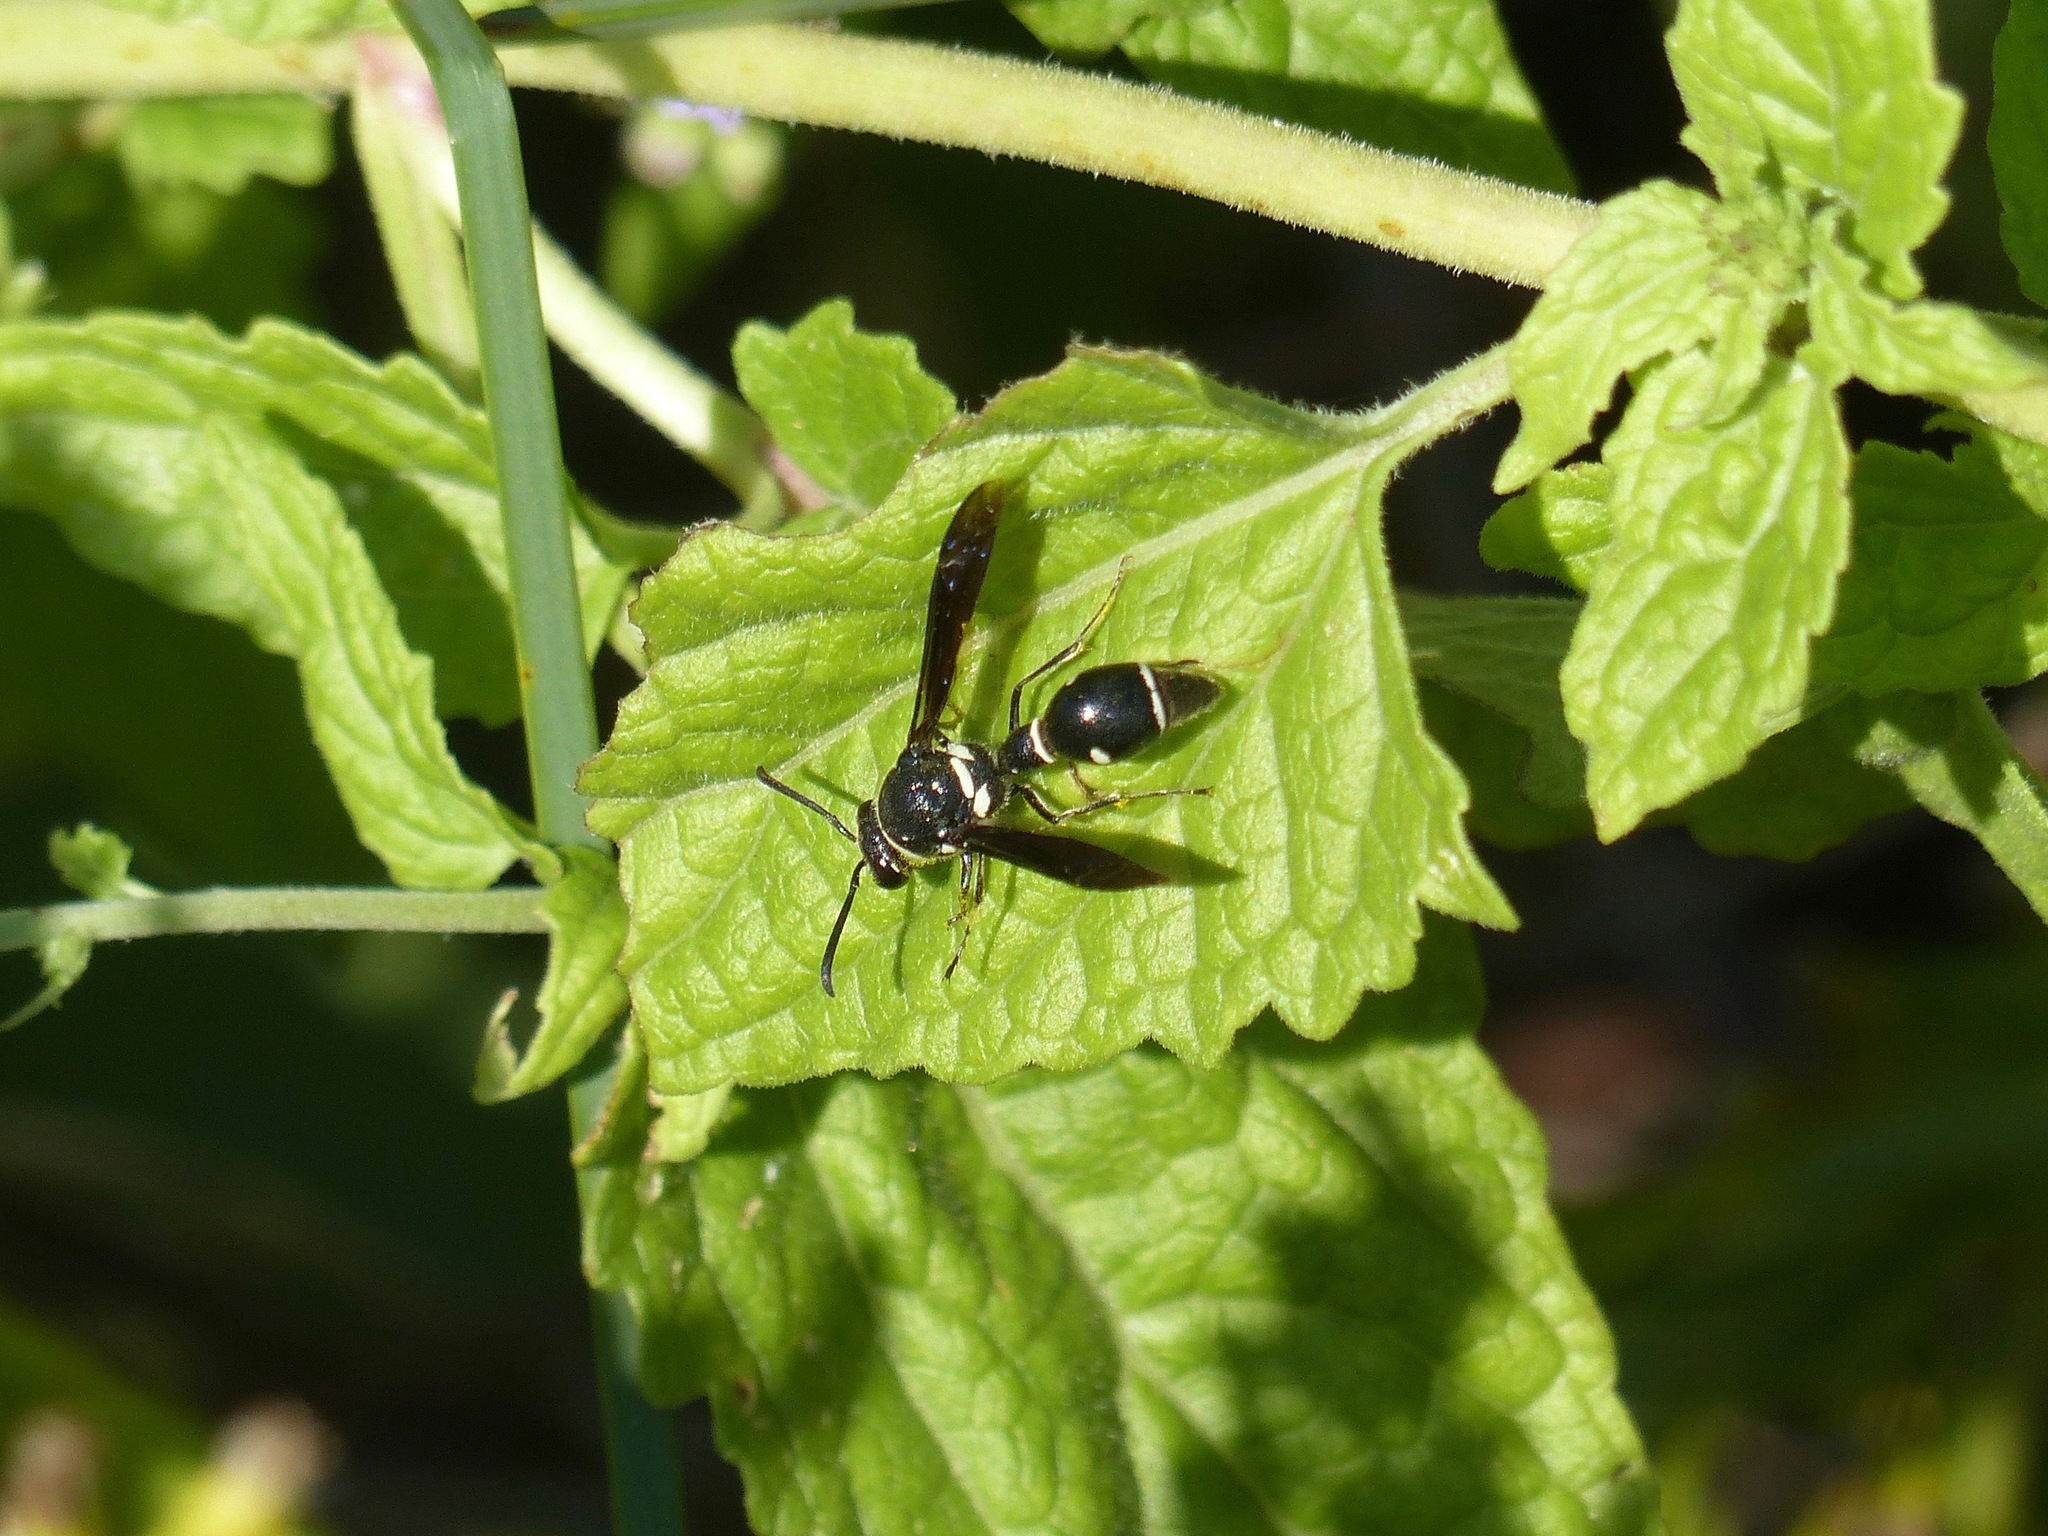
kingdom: Animalia
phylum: Arthropoda
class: Insecta
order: Hymenoptera
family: Vespidae
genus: Eumenes
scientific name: Eumenes fraternus
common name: Fraternal potter wasp
